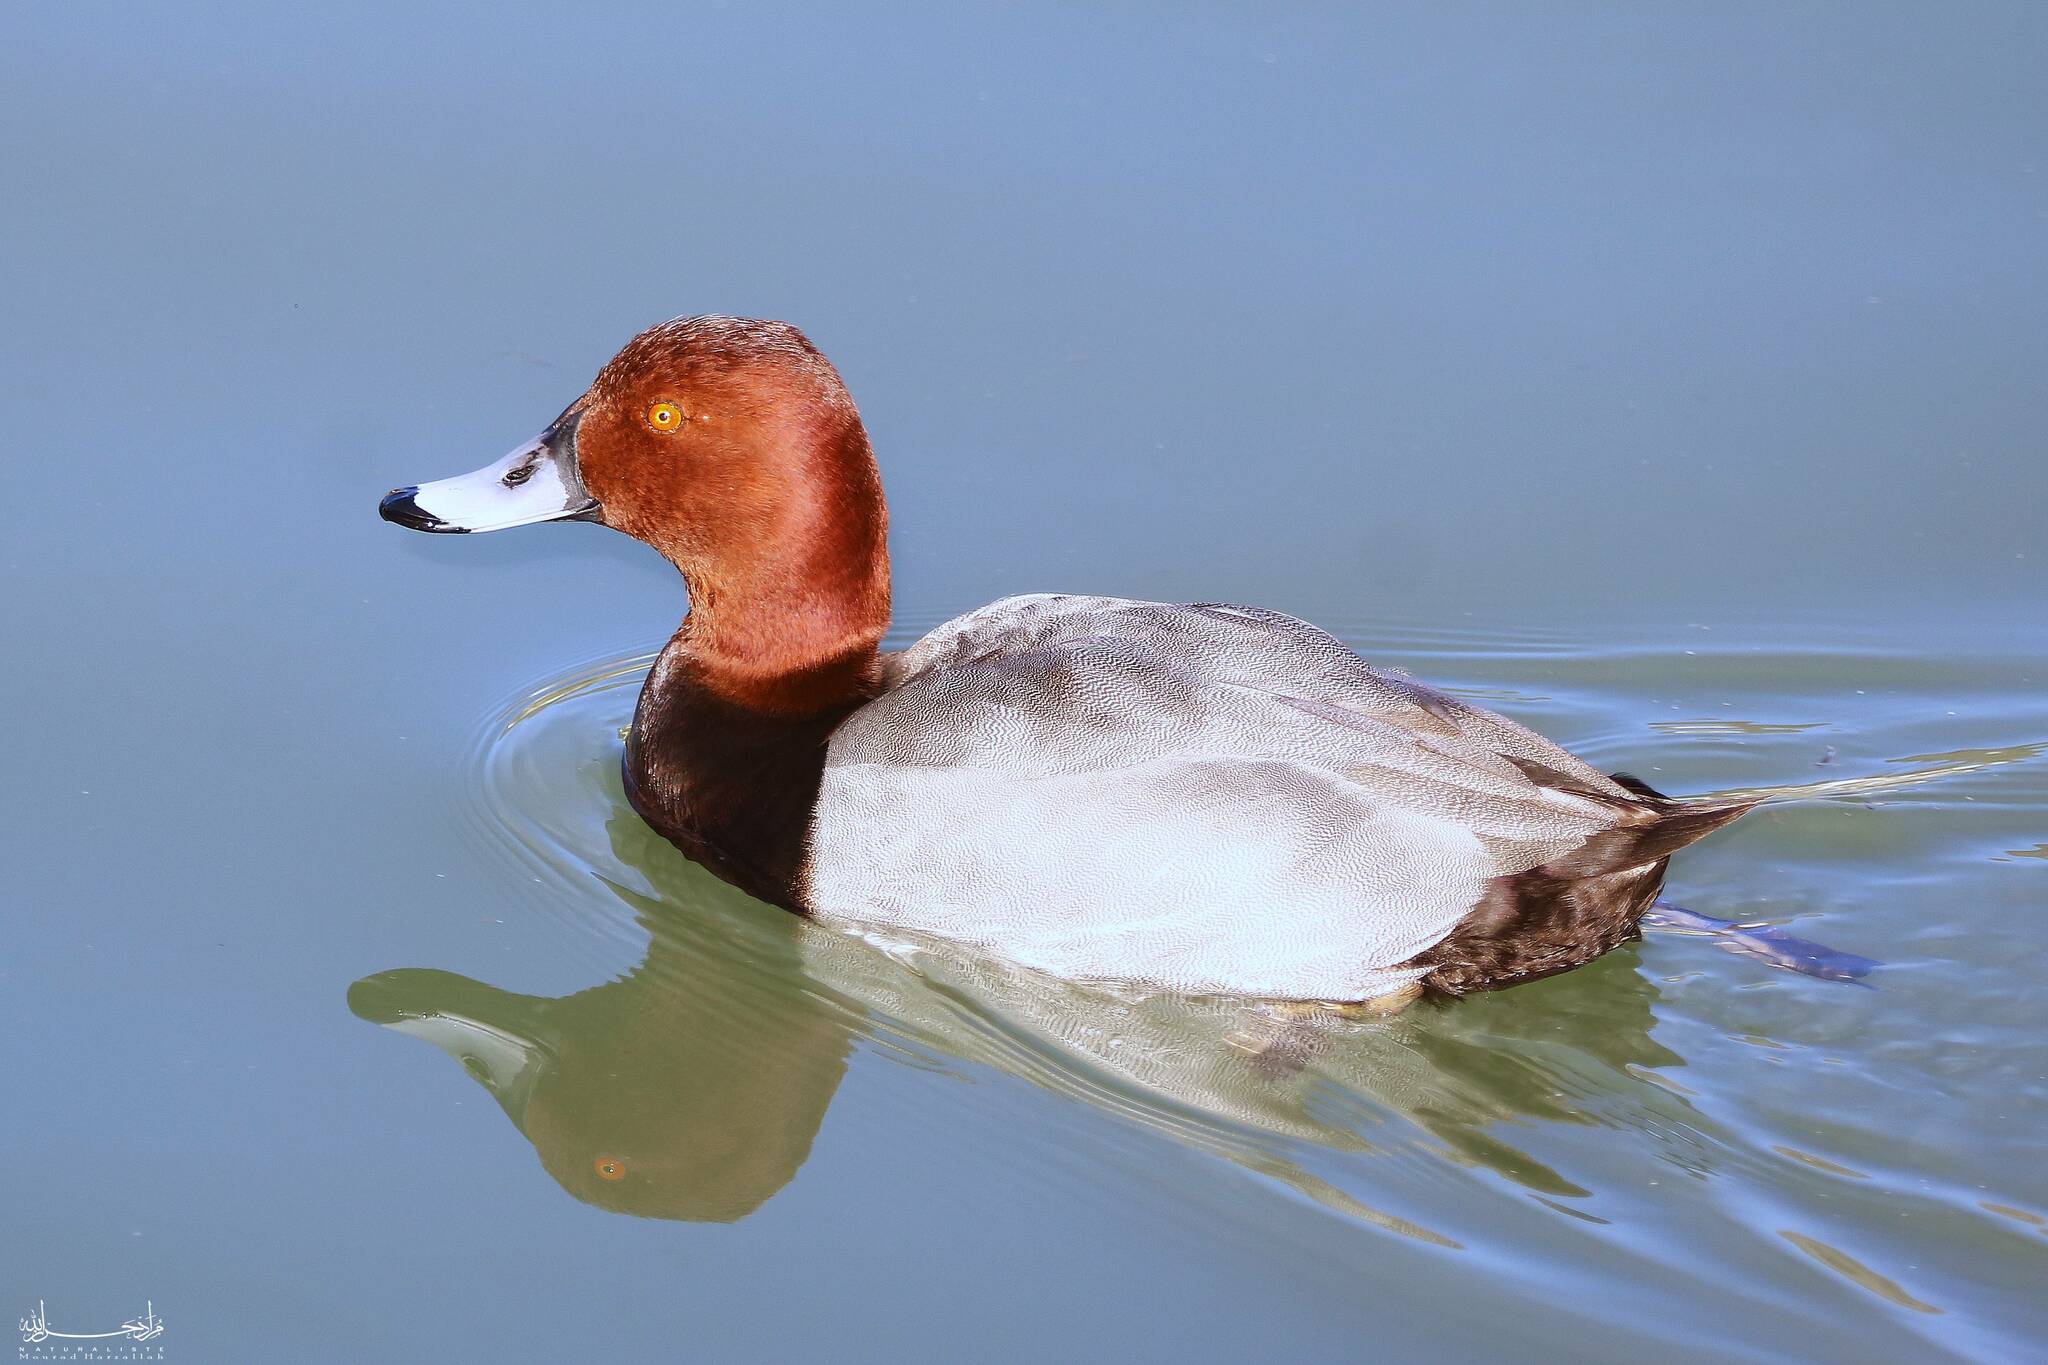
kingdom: Animalia
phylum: Chordata
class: Aves
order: Anseriformes
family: Anatidae
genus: Aythya
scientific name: Aythya ferina
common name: Common pochard
